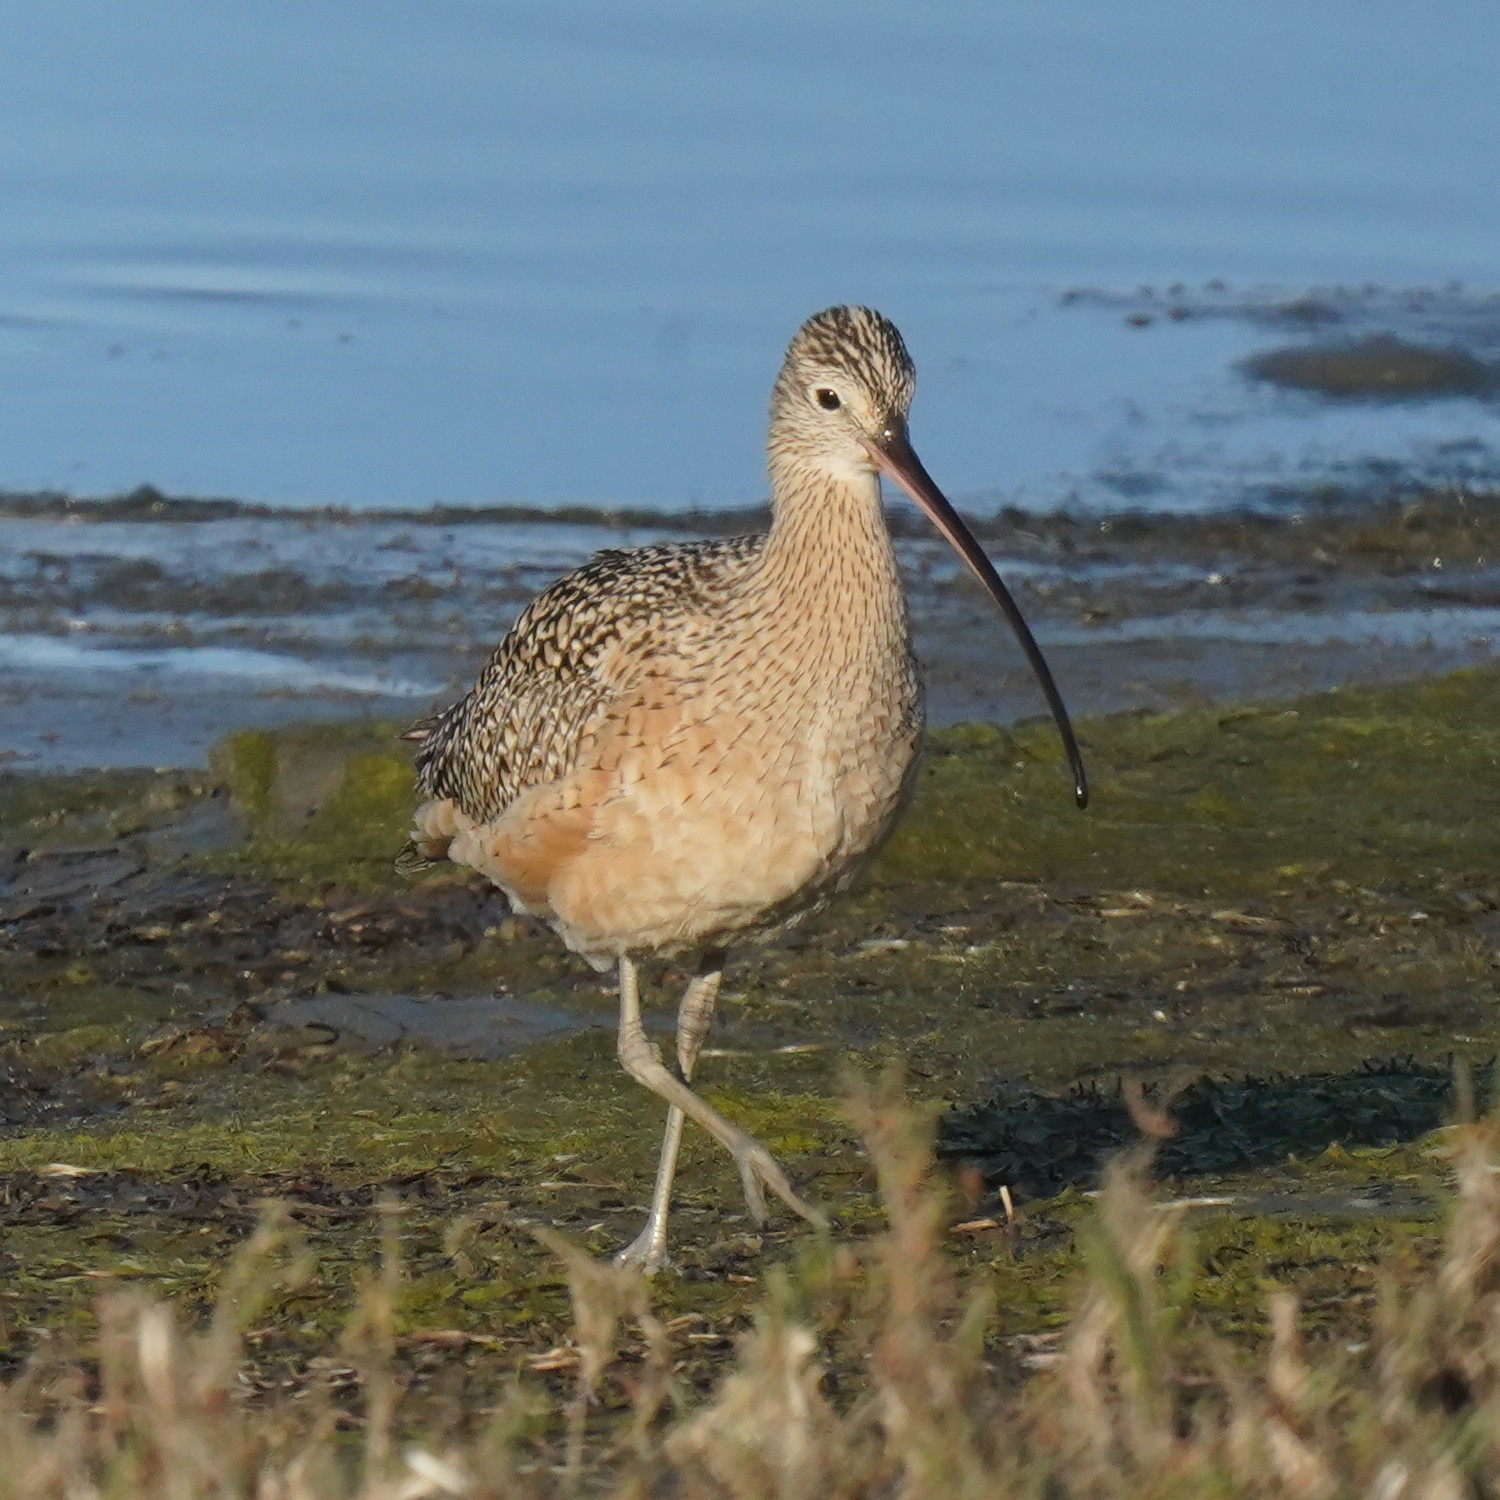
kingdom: Animalia
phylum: Chordata
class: Aves
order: Charadriiformes
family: Scolopacidae
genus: Numenius
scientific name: Numenius americanus
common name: Long-billed curlew
